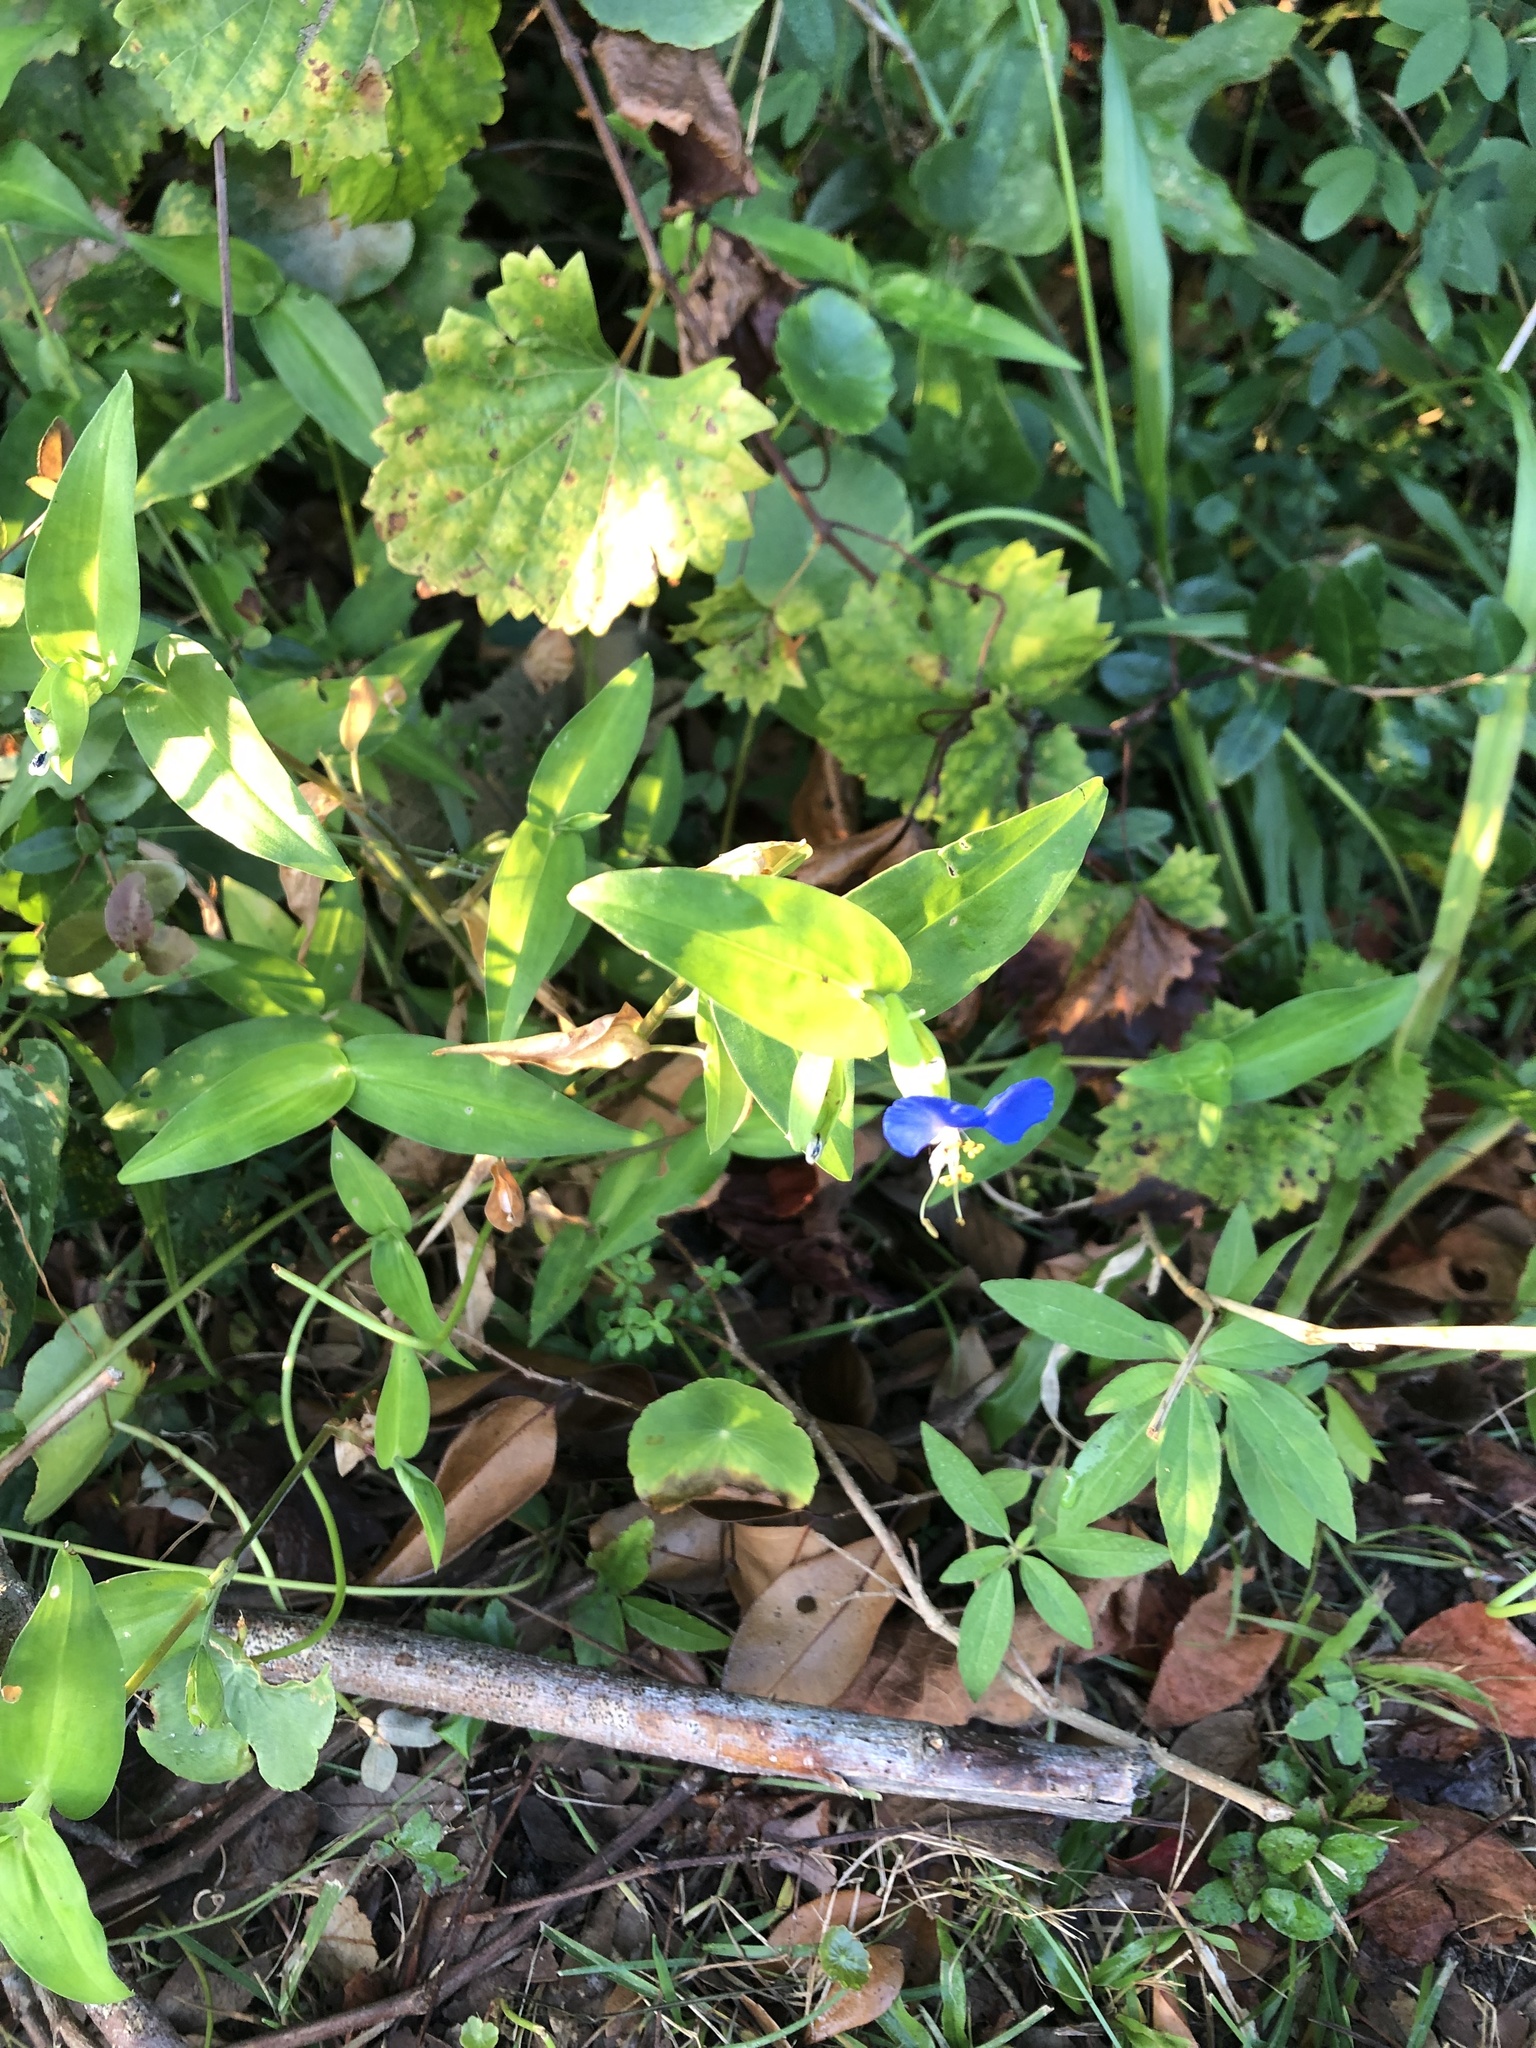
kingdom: Plantae
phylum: Tracheophyta
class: Liliopsida
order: Commelinales
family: Commelinaceae
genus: Commelina
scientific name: Commelina communis
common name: Asiatic dayflower
